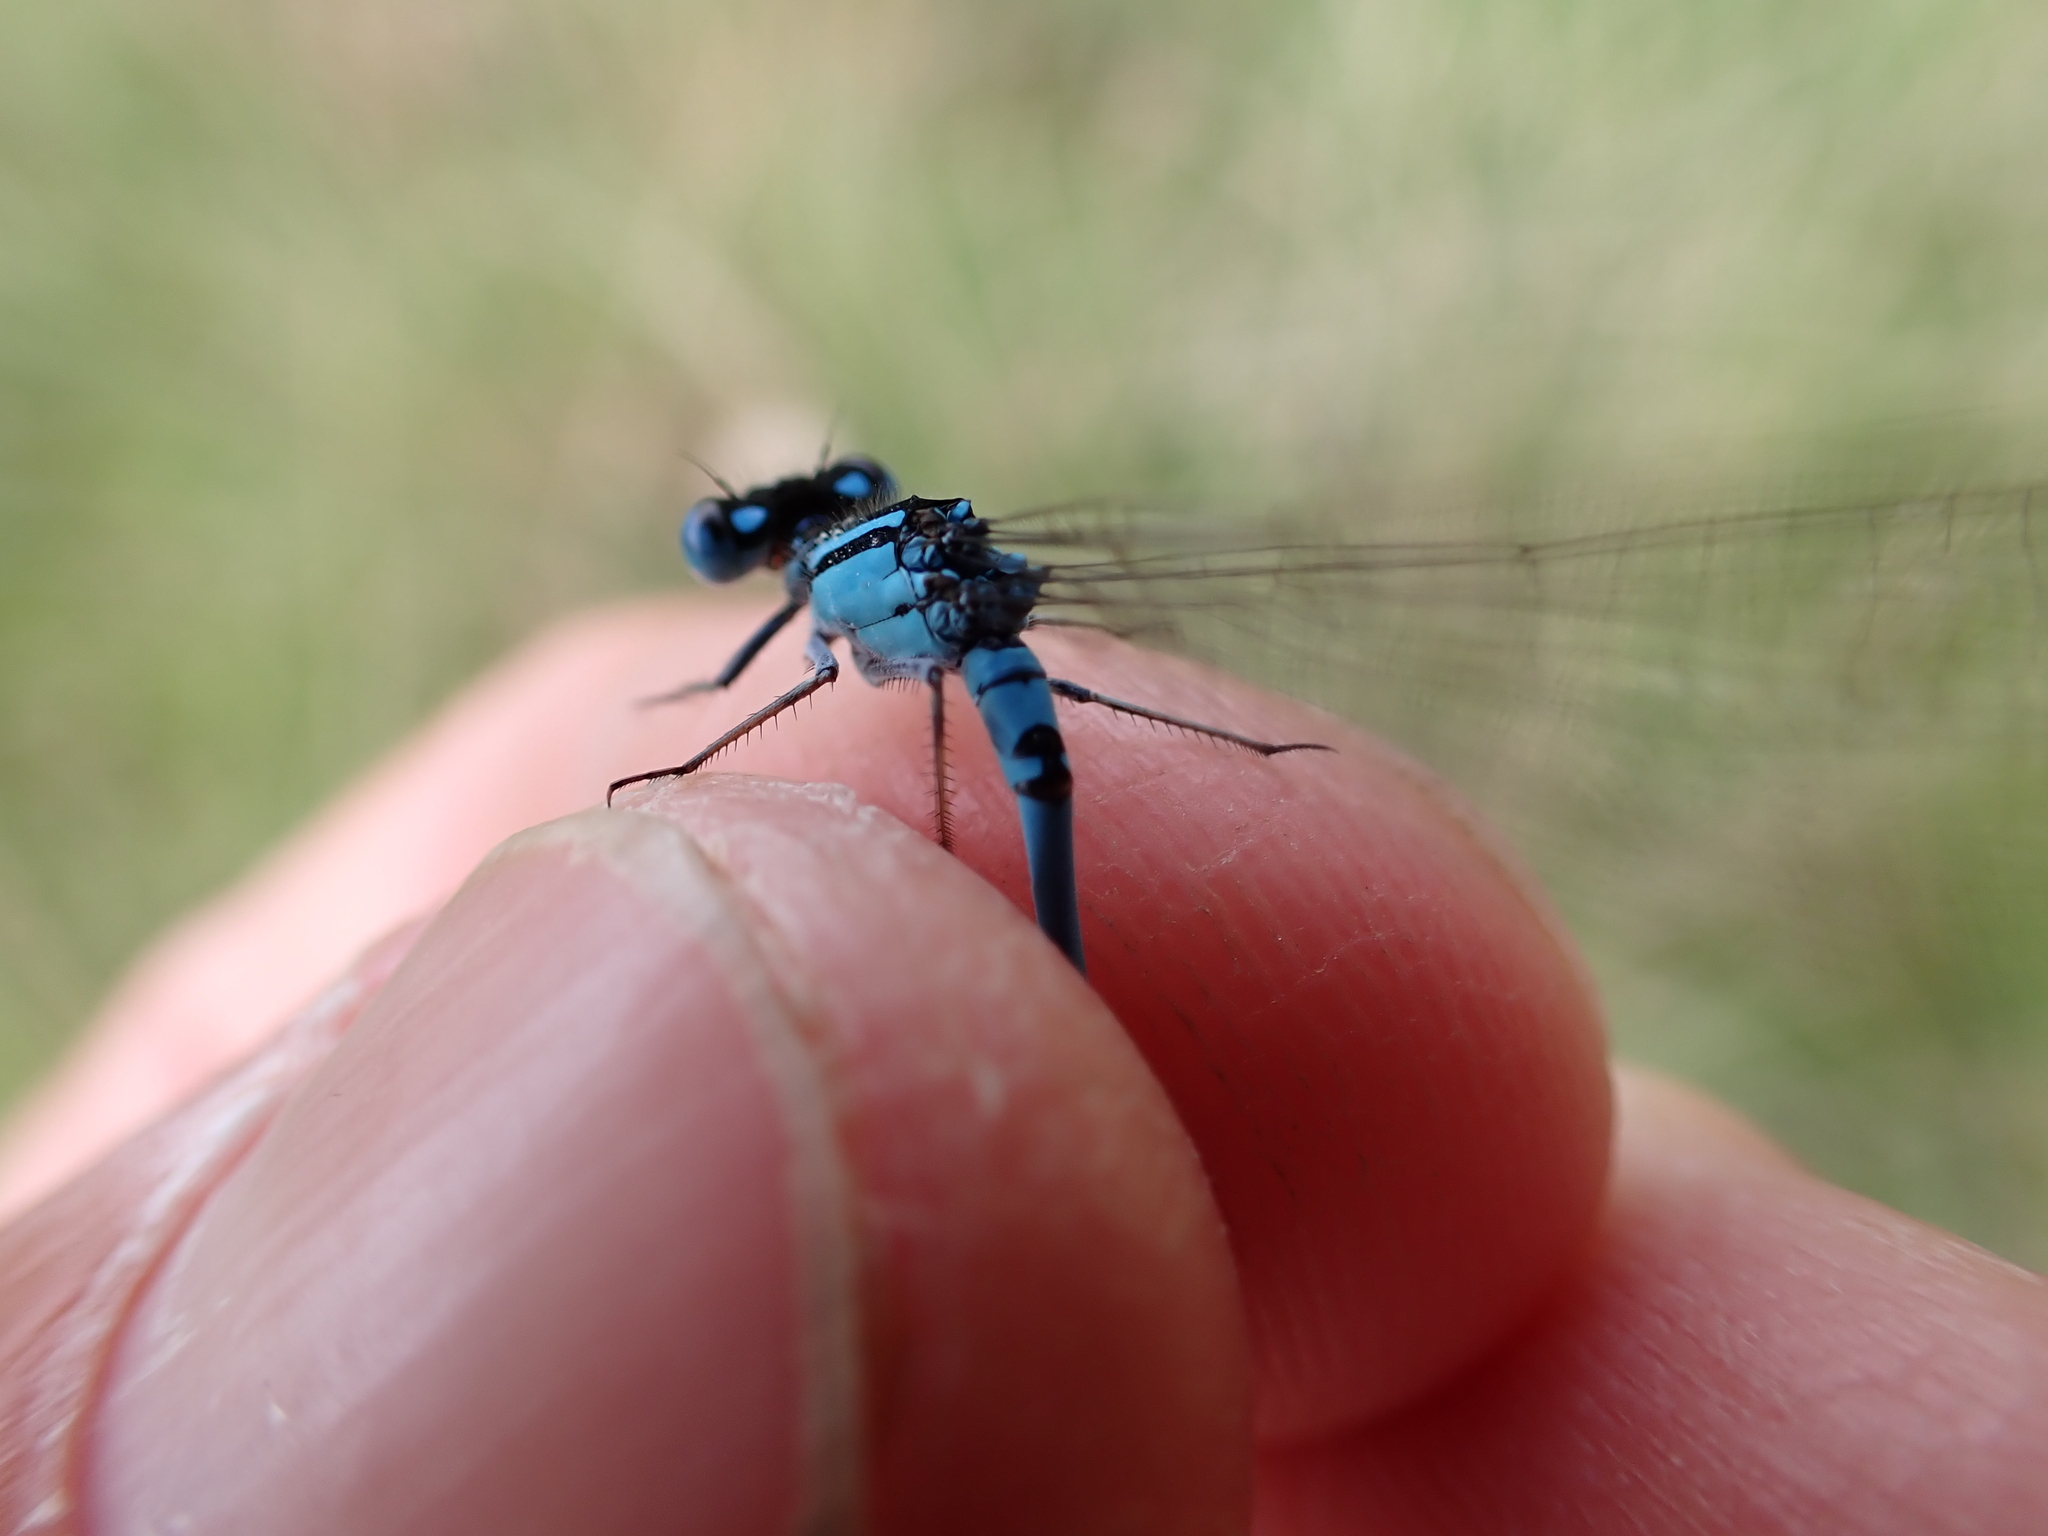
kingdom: Animalia
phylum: Arthropoda
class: Insecta
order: Odonata
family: Coenagrionidae
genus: Enallagma
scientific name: Enallagma cyathigerum
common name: Common blue damselfly
